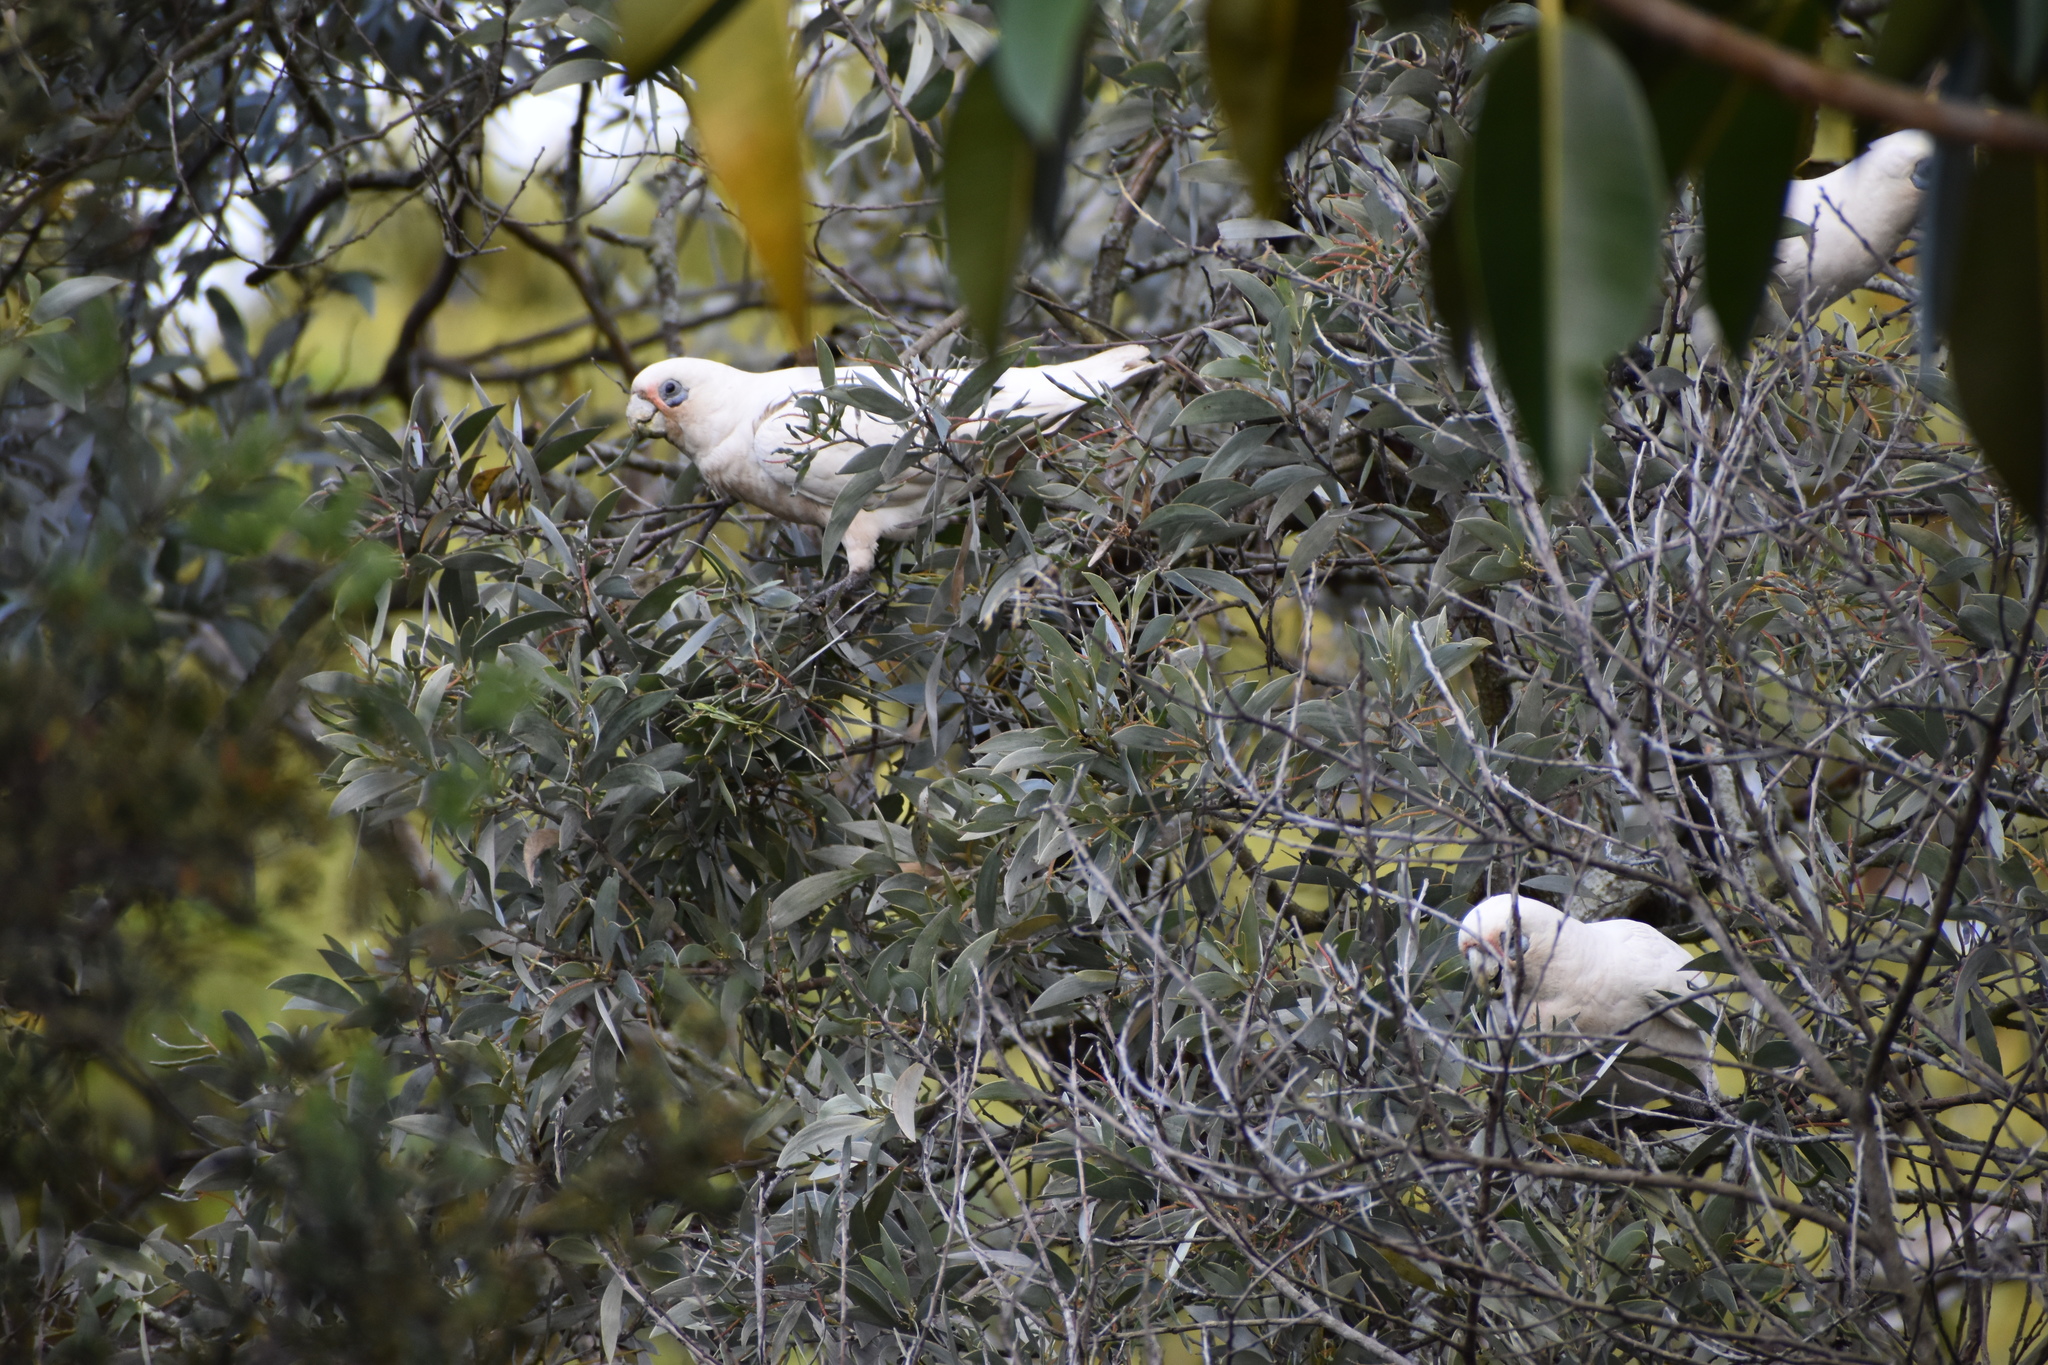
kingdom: Animalia
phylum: Chordata
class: Aves
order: Psittaciformes
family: Psittacidae
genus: Cacatua
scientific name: Cacatua sanguinea
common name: Little corella
